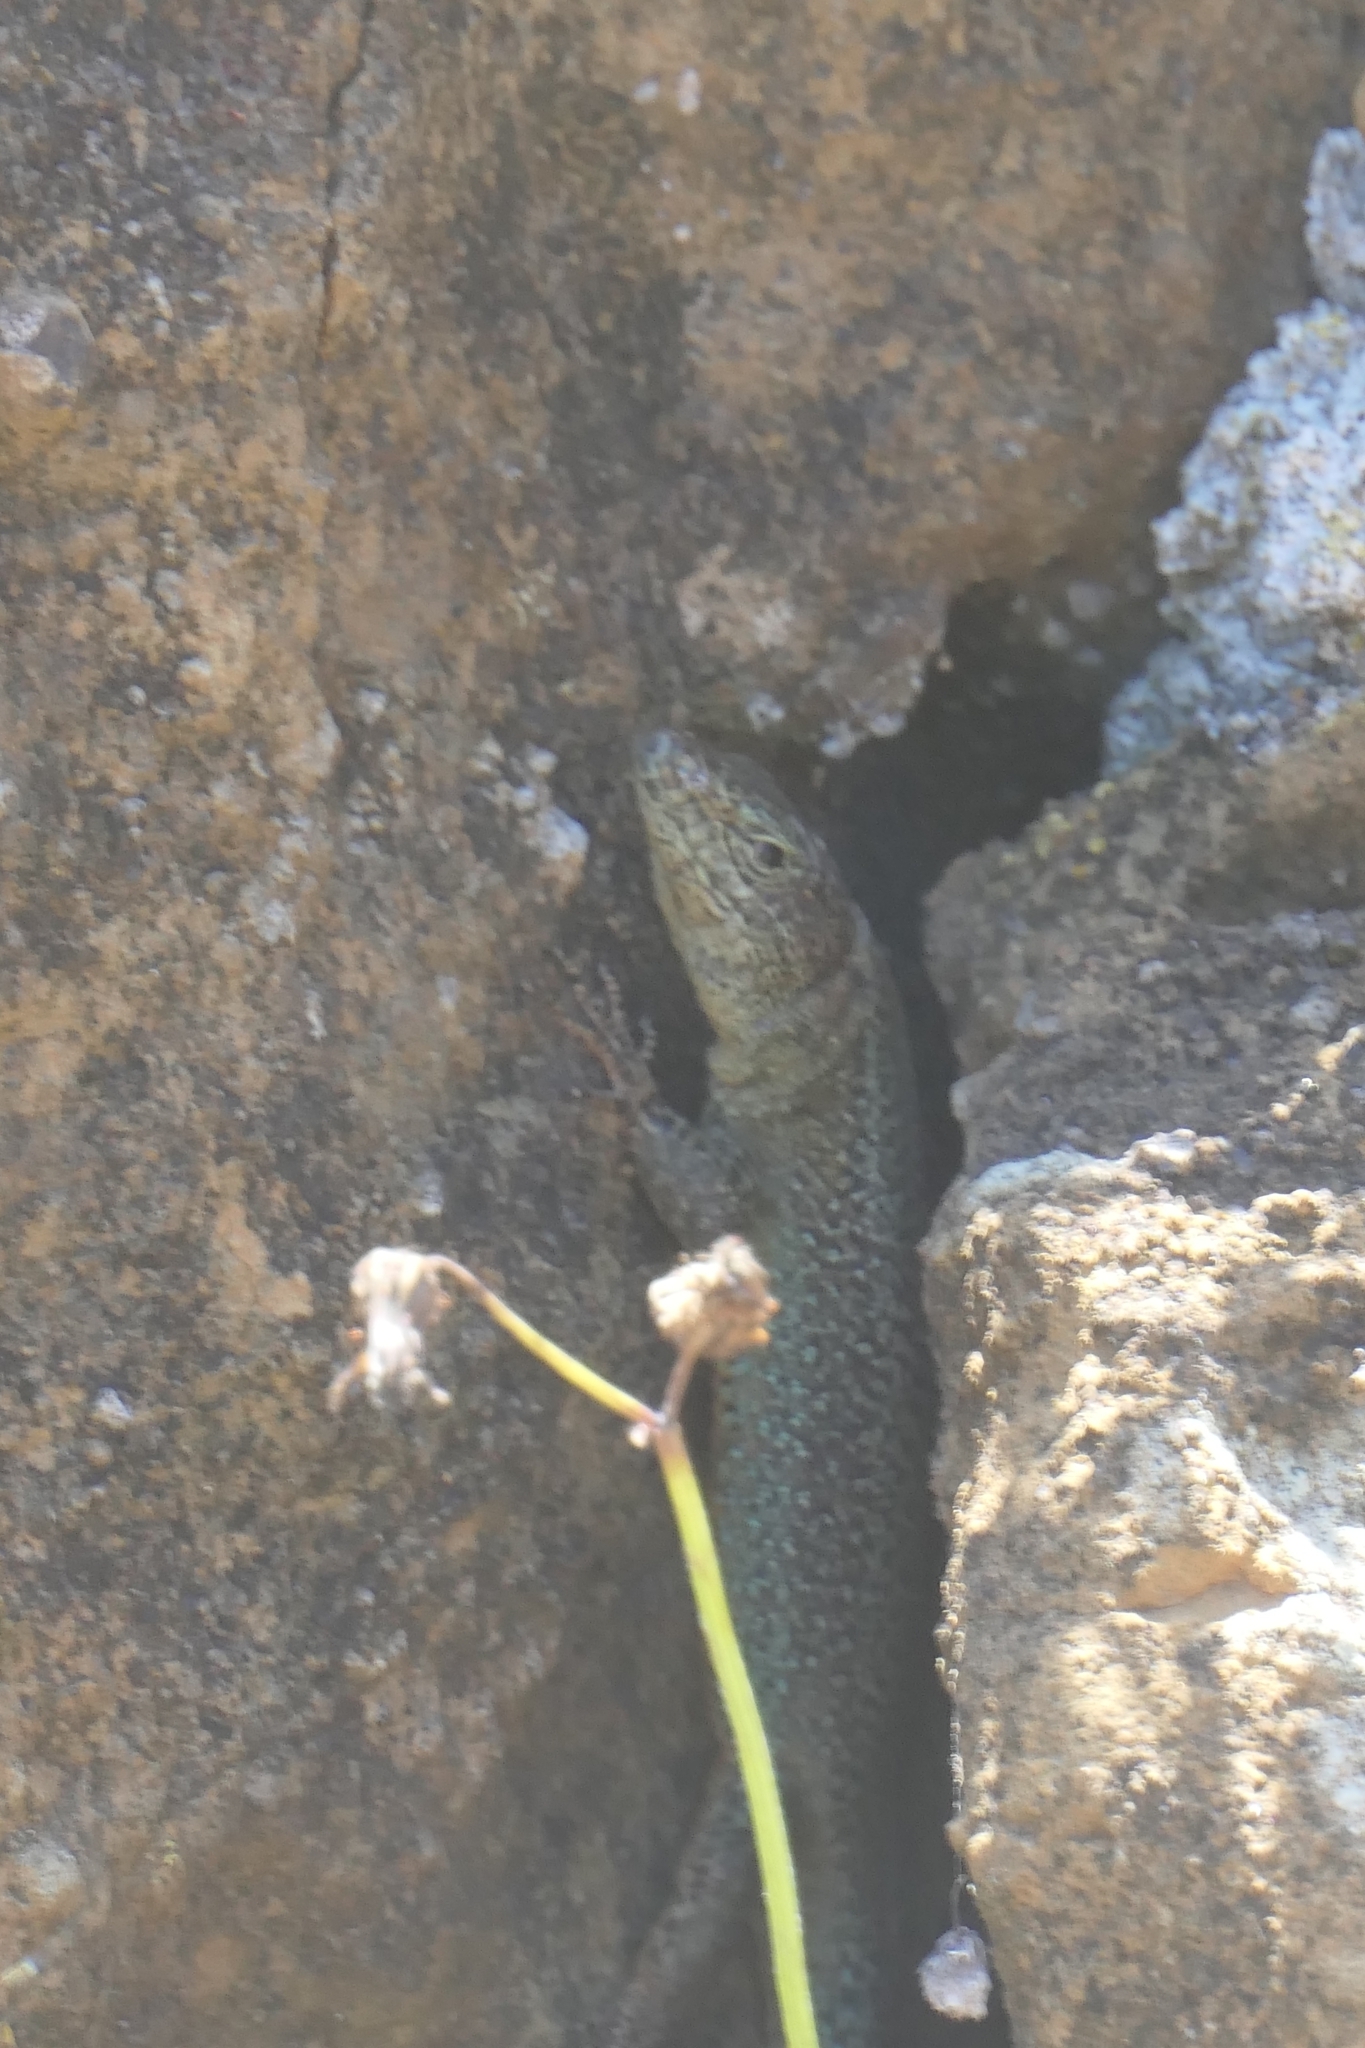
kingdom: Animalia
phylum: Chordata
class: Squamata
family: Lacertidae
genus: Teira
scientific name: Teira dugesii
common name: Madeira lizard
